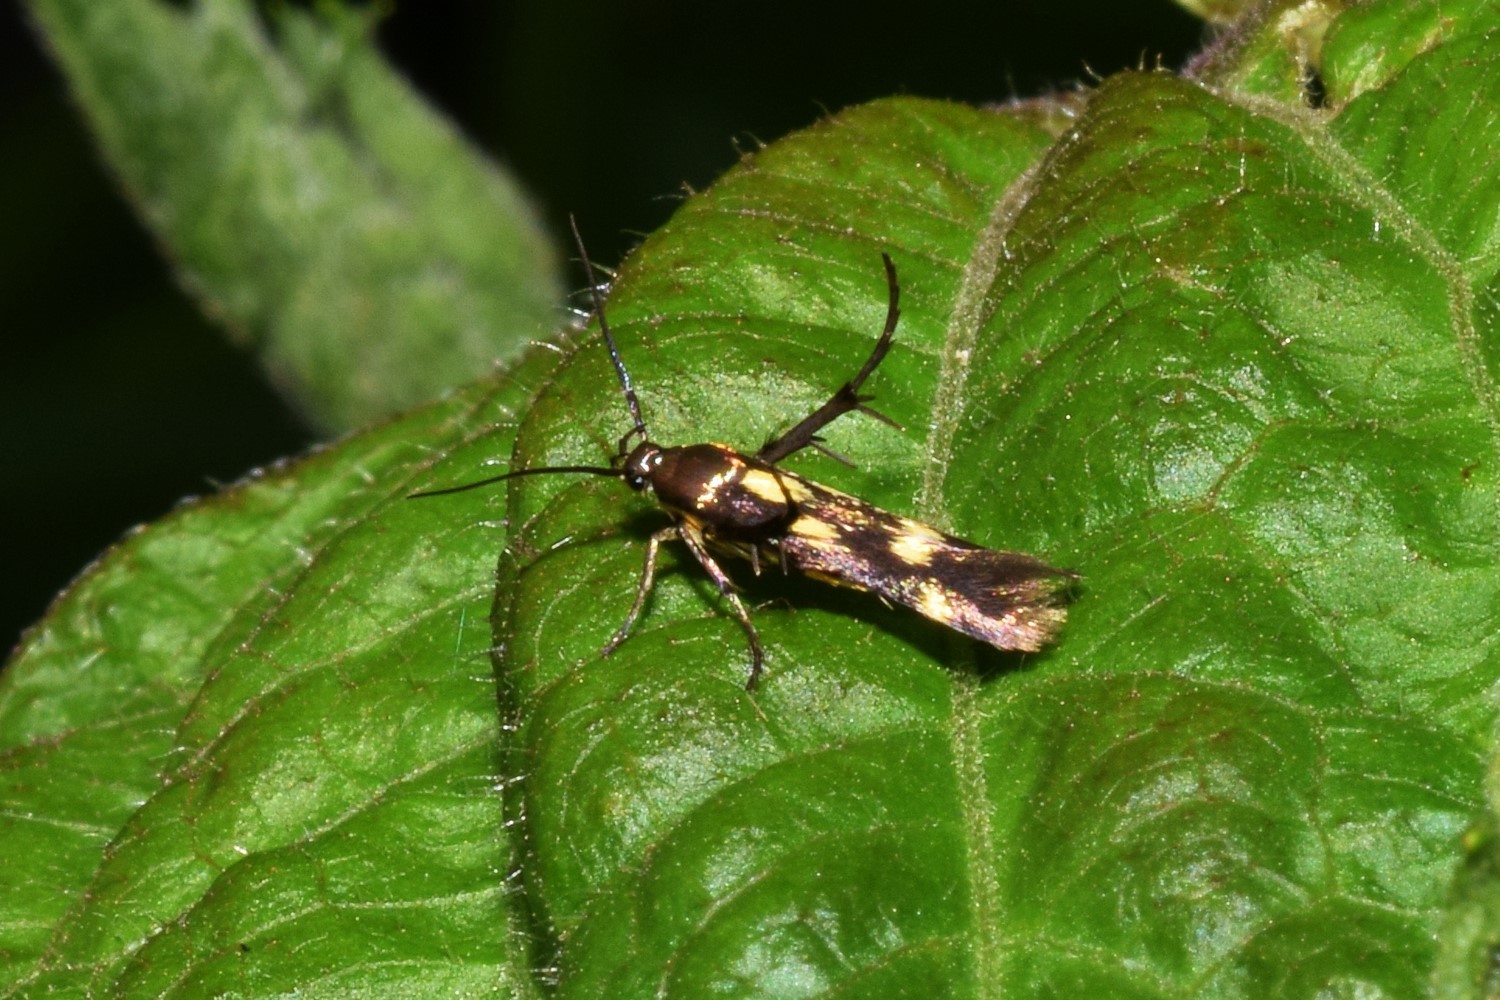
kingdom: Animalia
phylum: Arthropoda
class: Insecta
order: Lepidoptera
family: Scythrididae
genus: Eretmocera
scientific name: Eretmocera impactella
